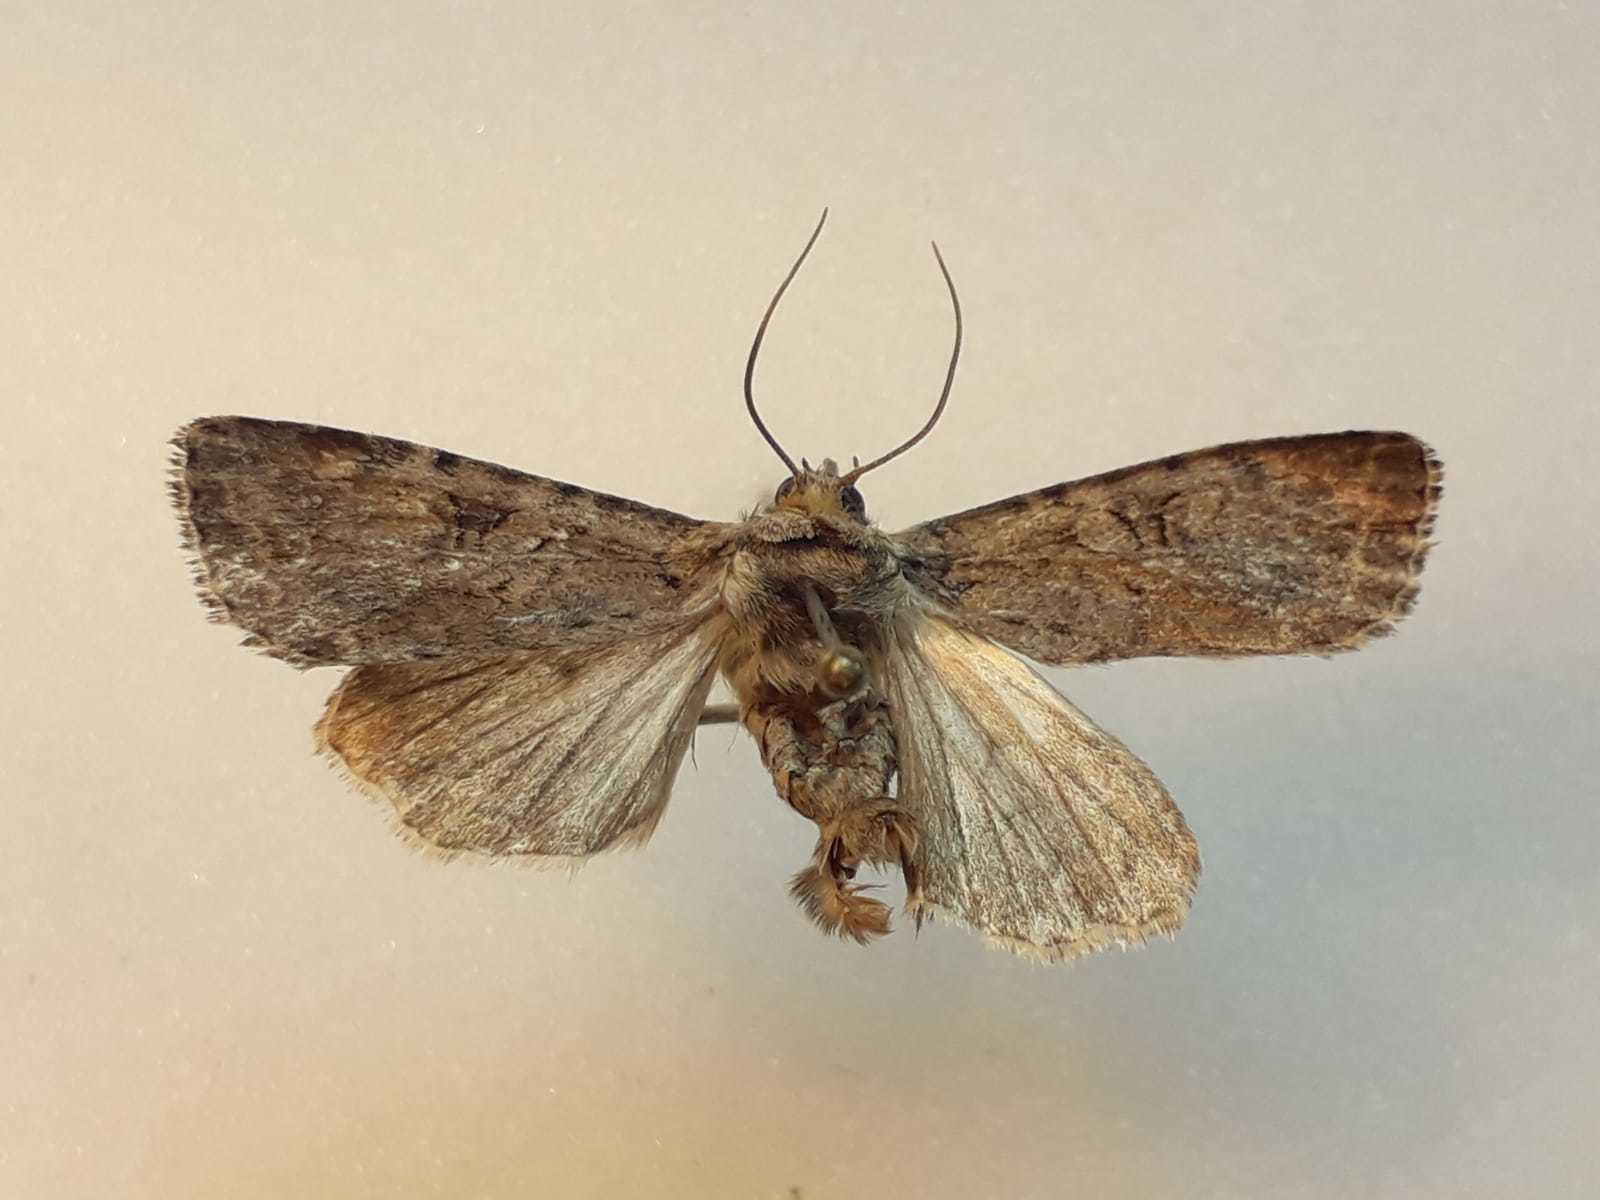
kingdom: Animalia
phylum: Arthropoda
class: Insecta
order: Lepidoptera
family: Noctuidae
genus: Apterogenum
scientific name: Apterogenum ypsillon
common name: Dingy shears
